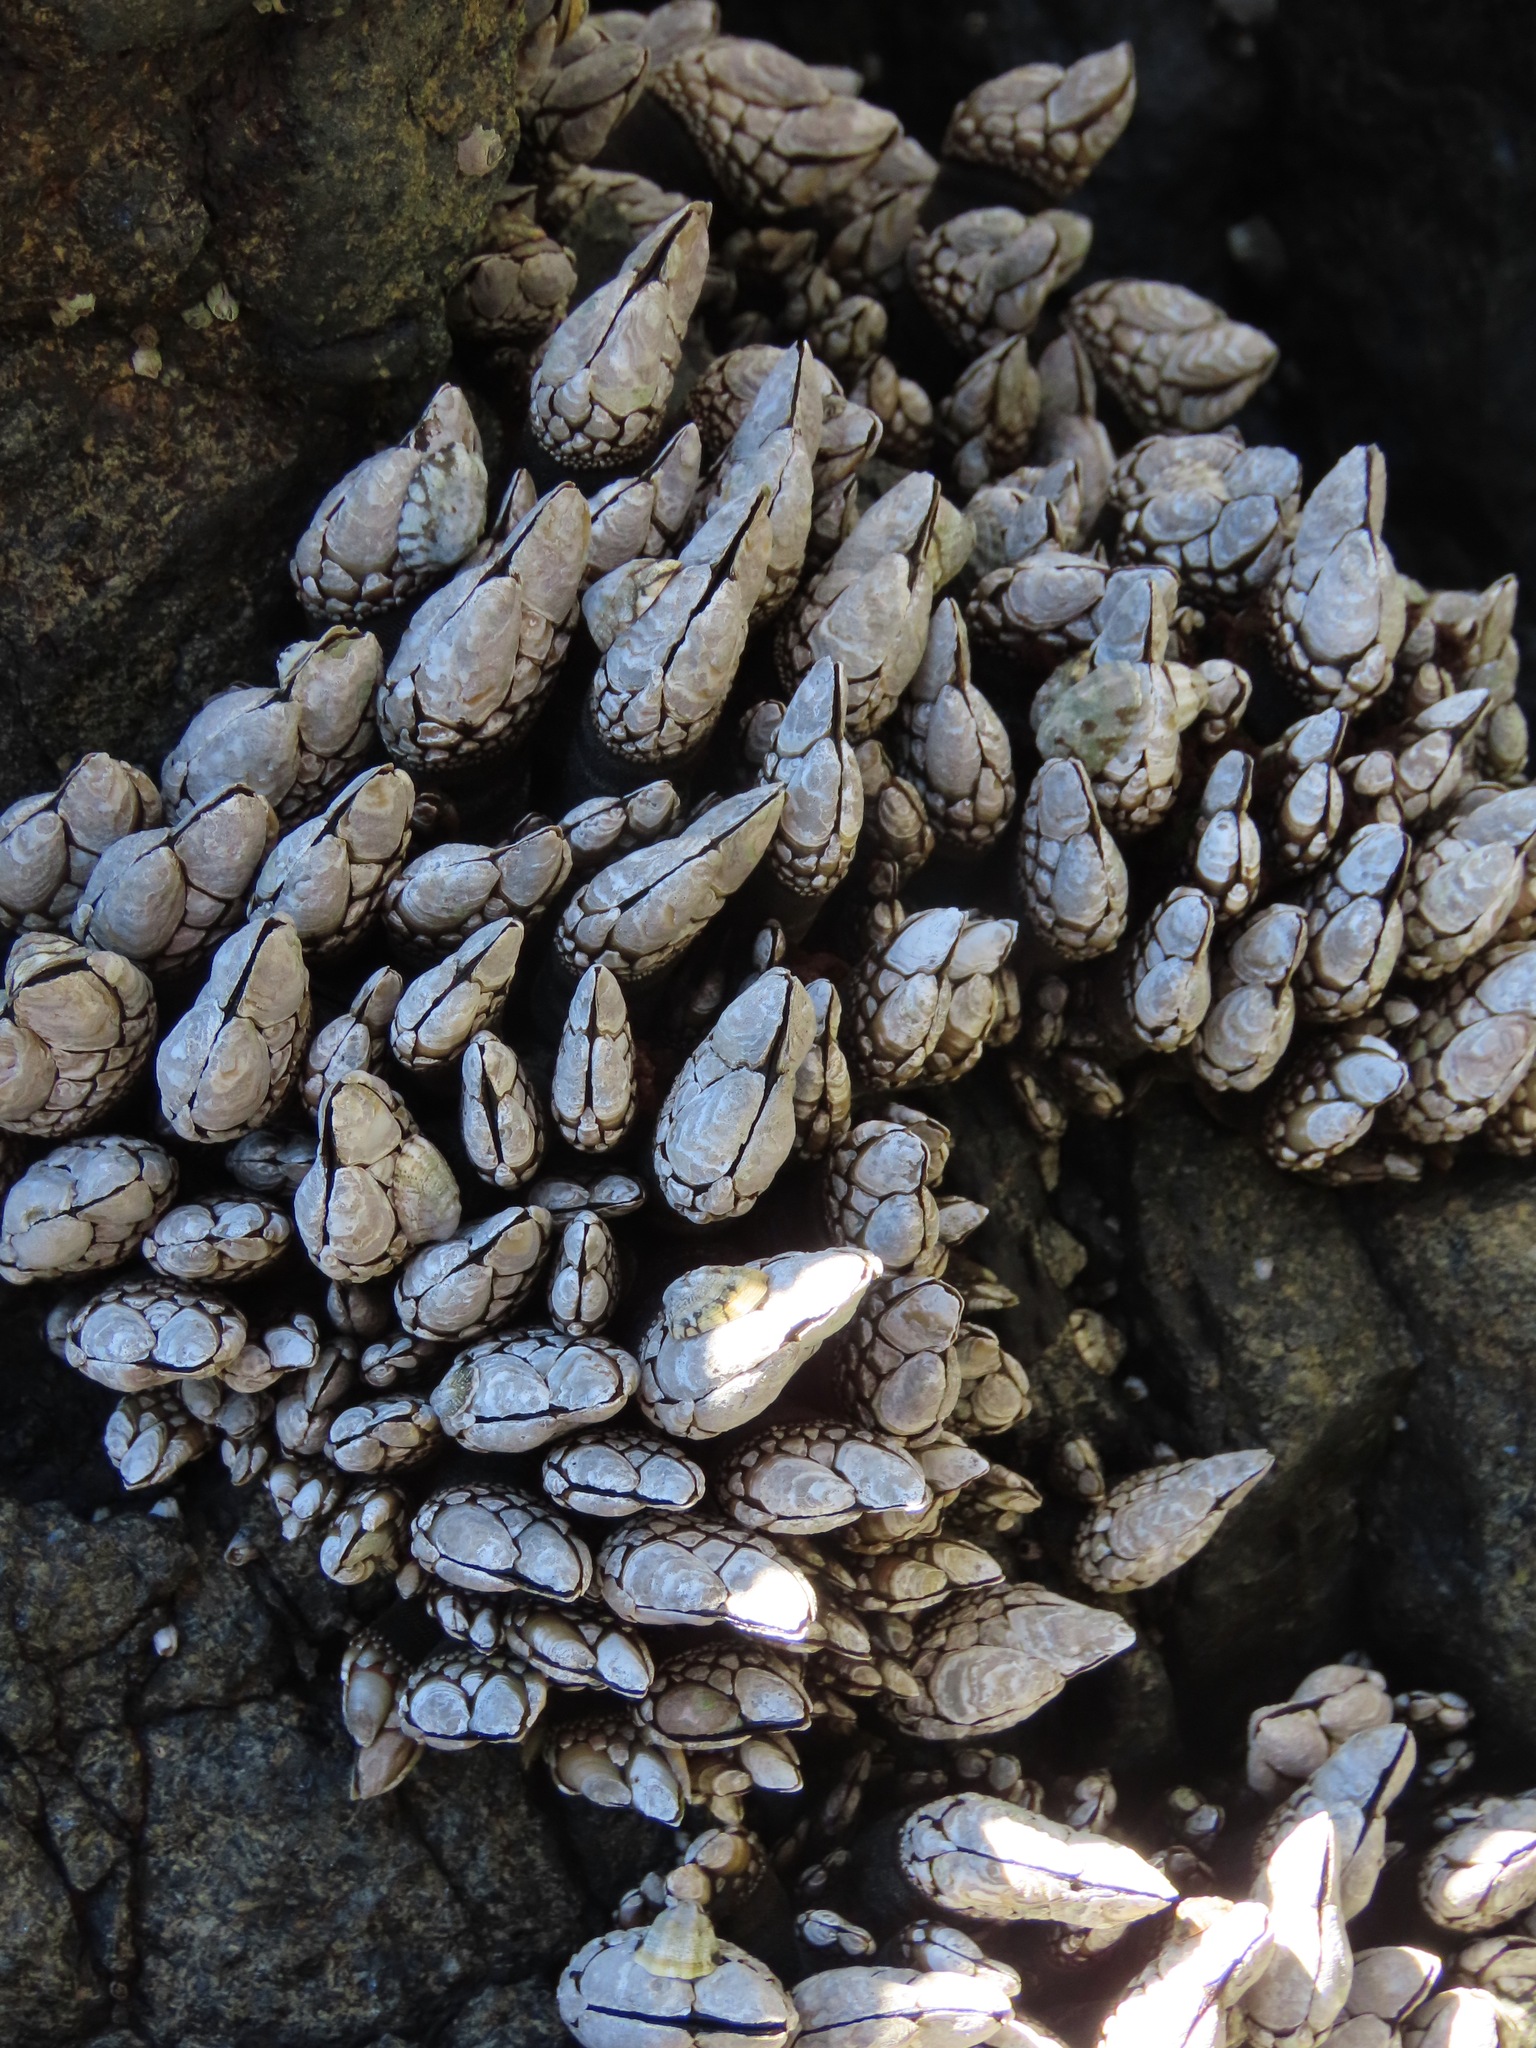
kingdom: Animalia
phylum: Arthropoda
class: Maxillopoda
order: Pedunculata
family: Pollicipedidae
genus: Pollicipes
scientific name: Pollicipes polymerus
